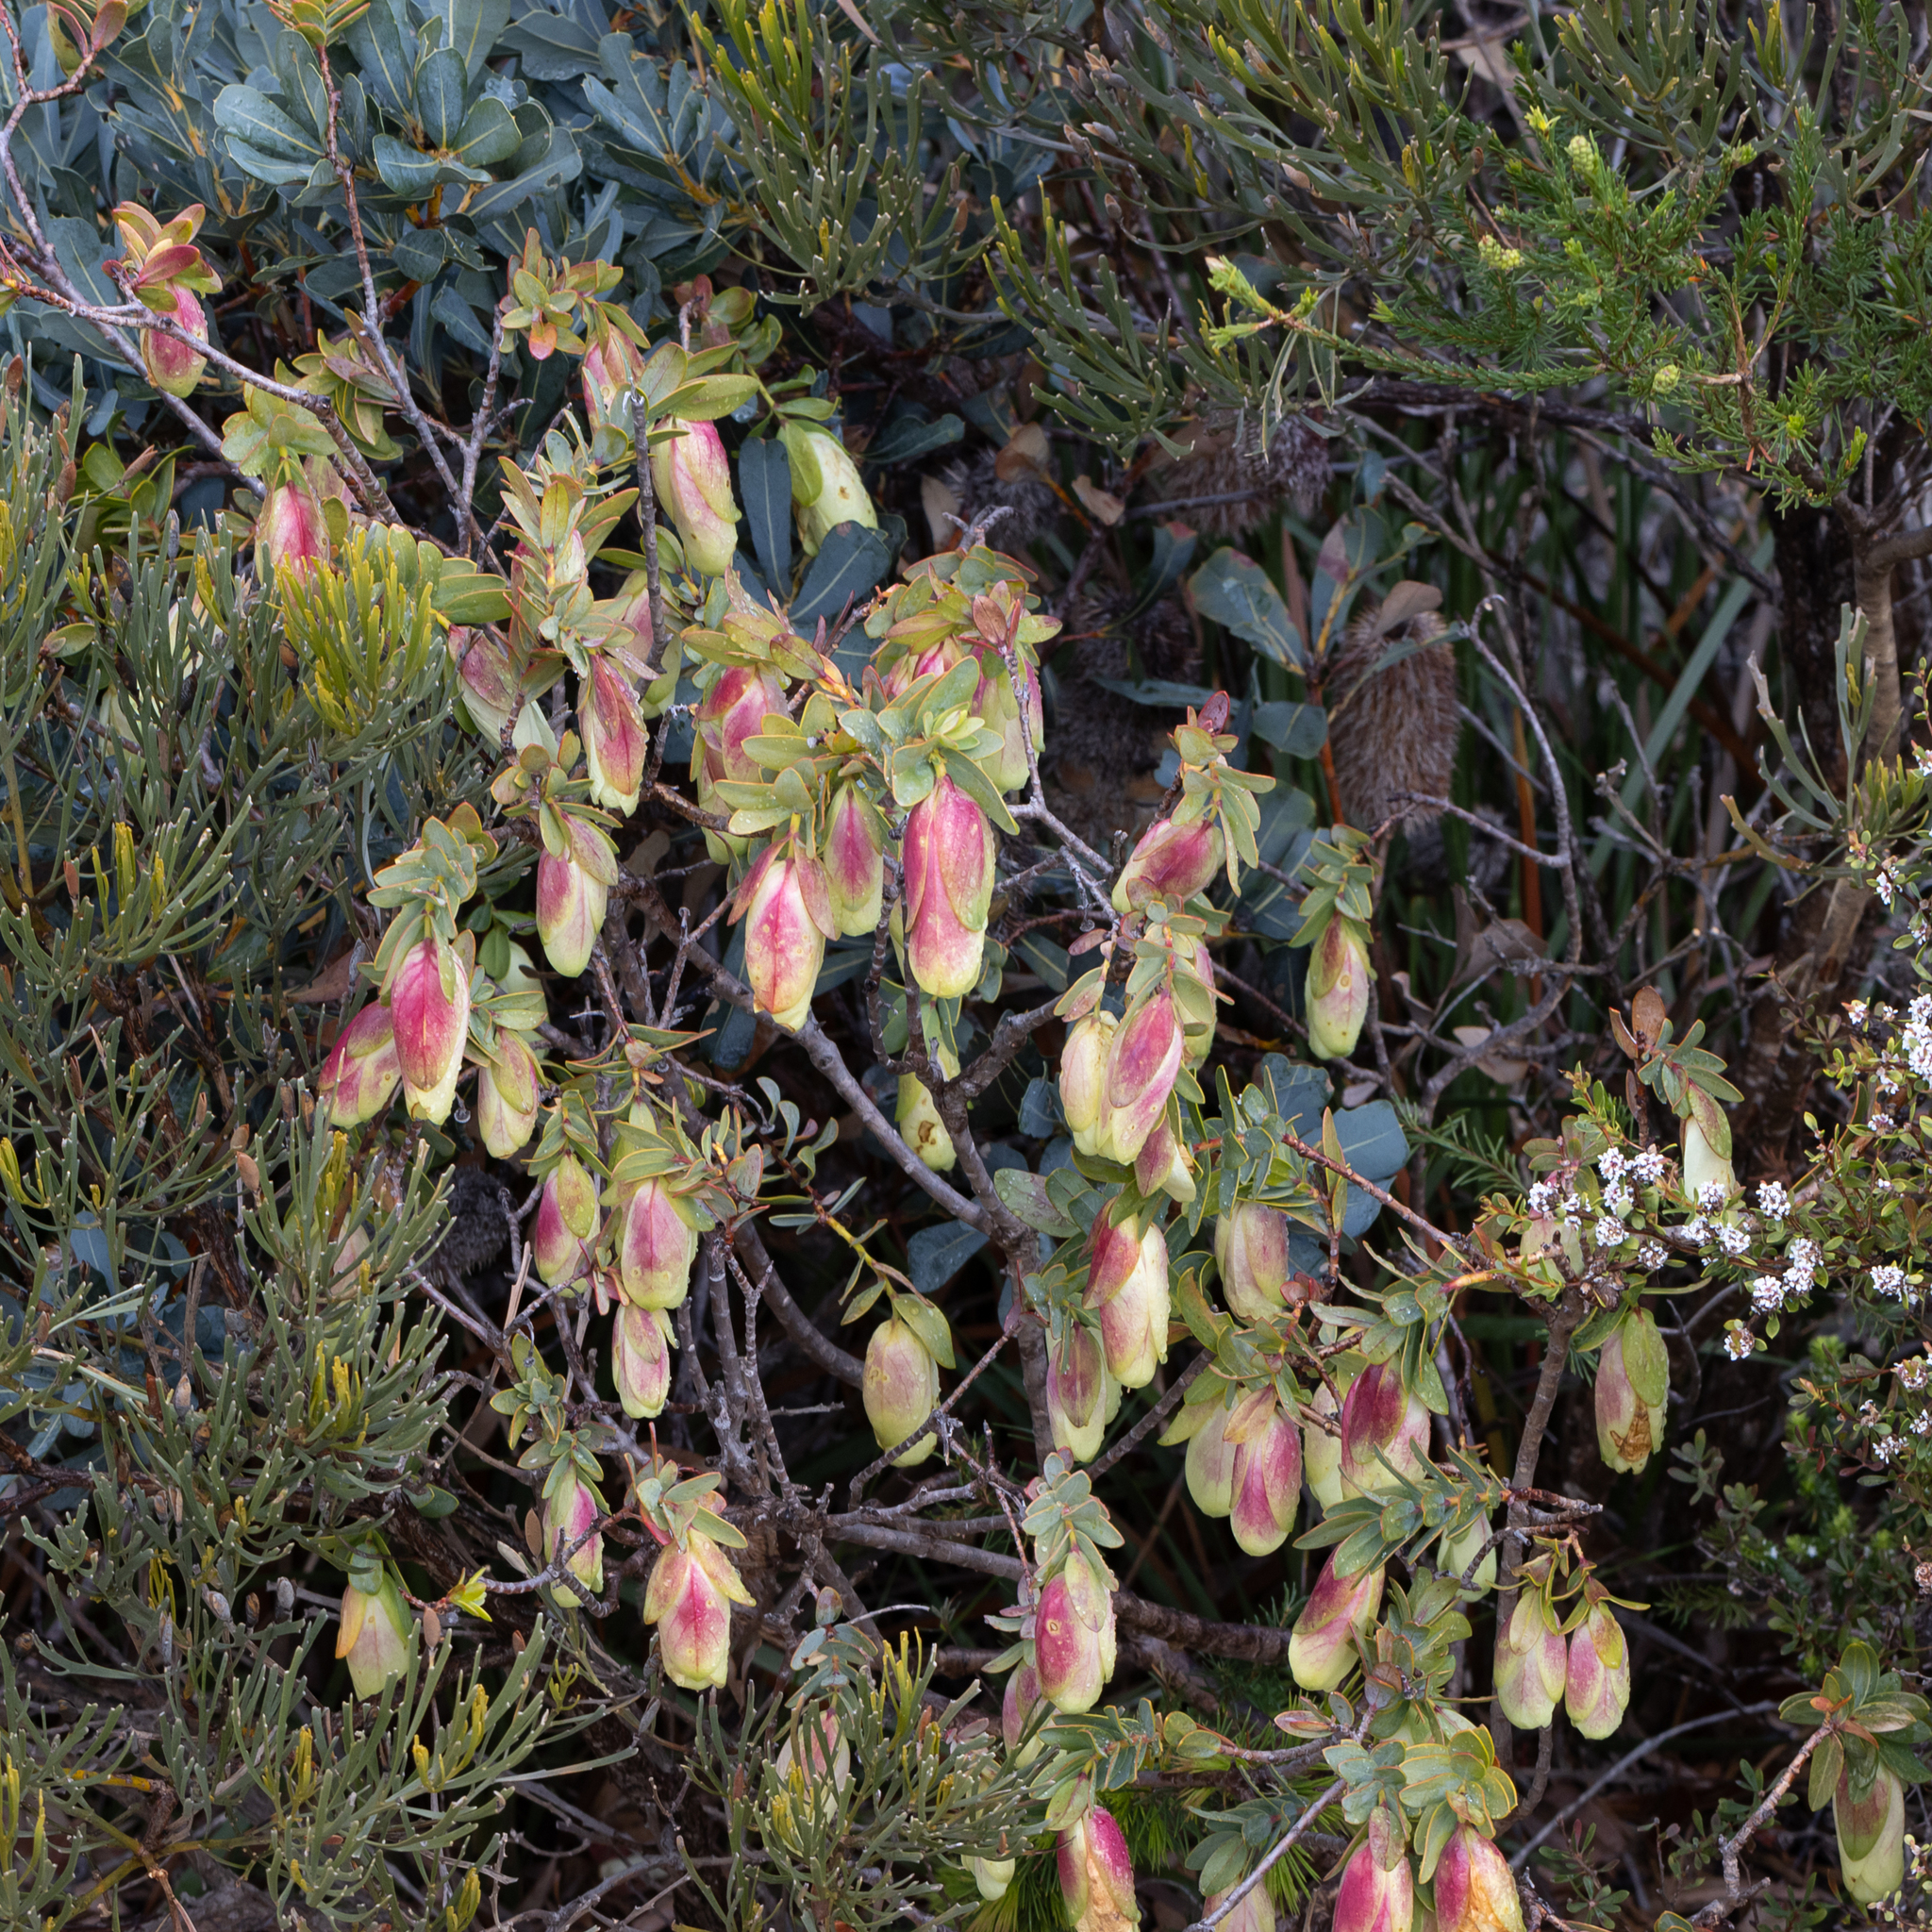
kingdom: Plantae
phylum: Tracheophyta
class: Magnoliopsida
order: Malvales
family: Thymelaeaceae
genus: Pimelea
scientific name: Pimelea physodes
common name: Qualup-bell
